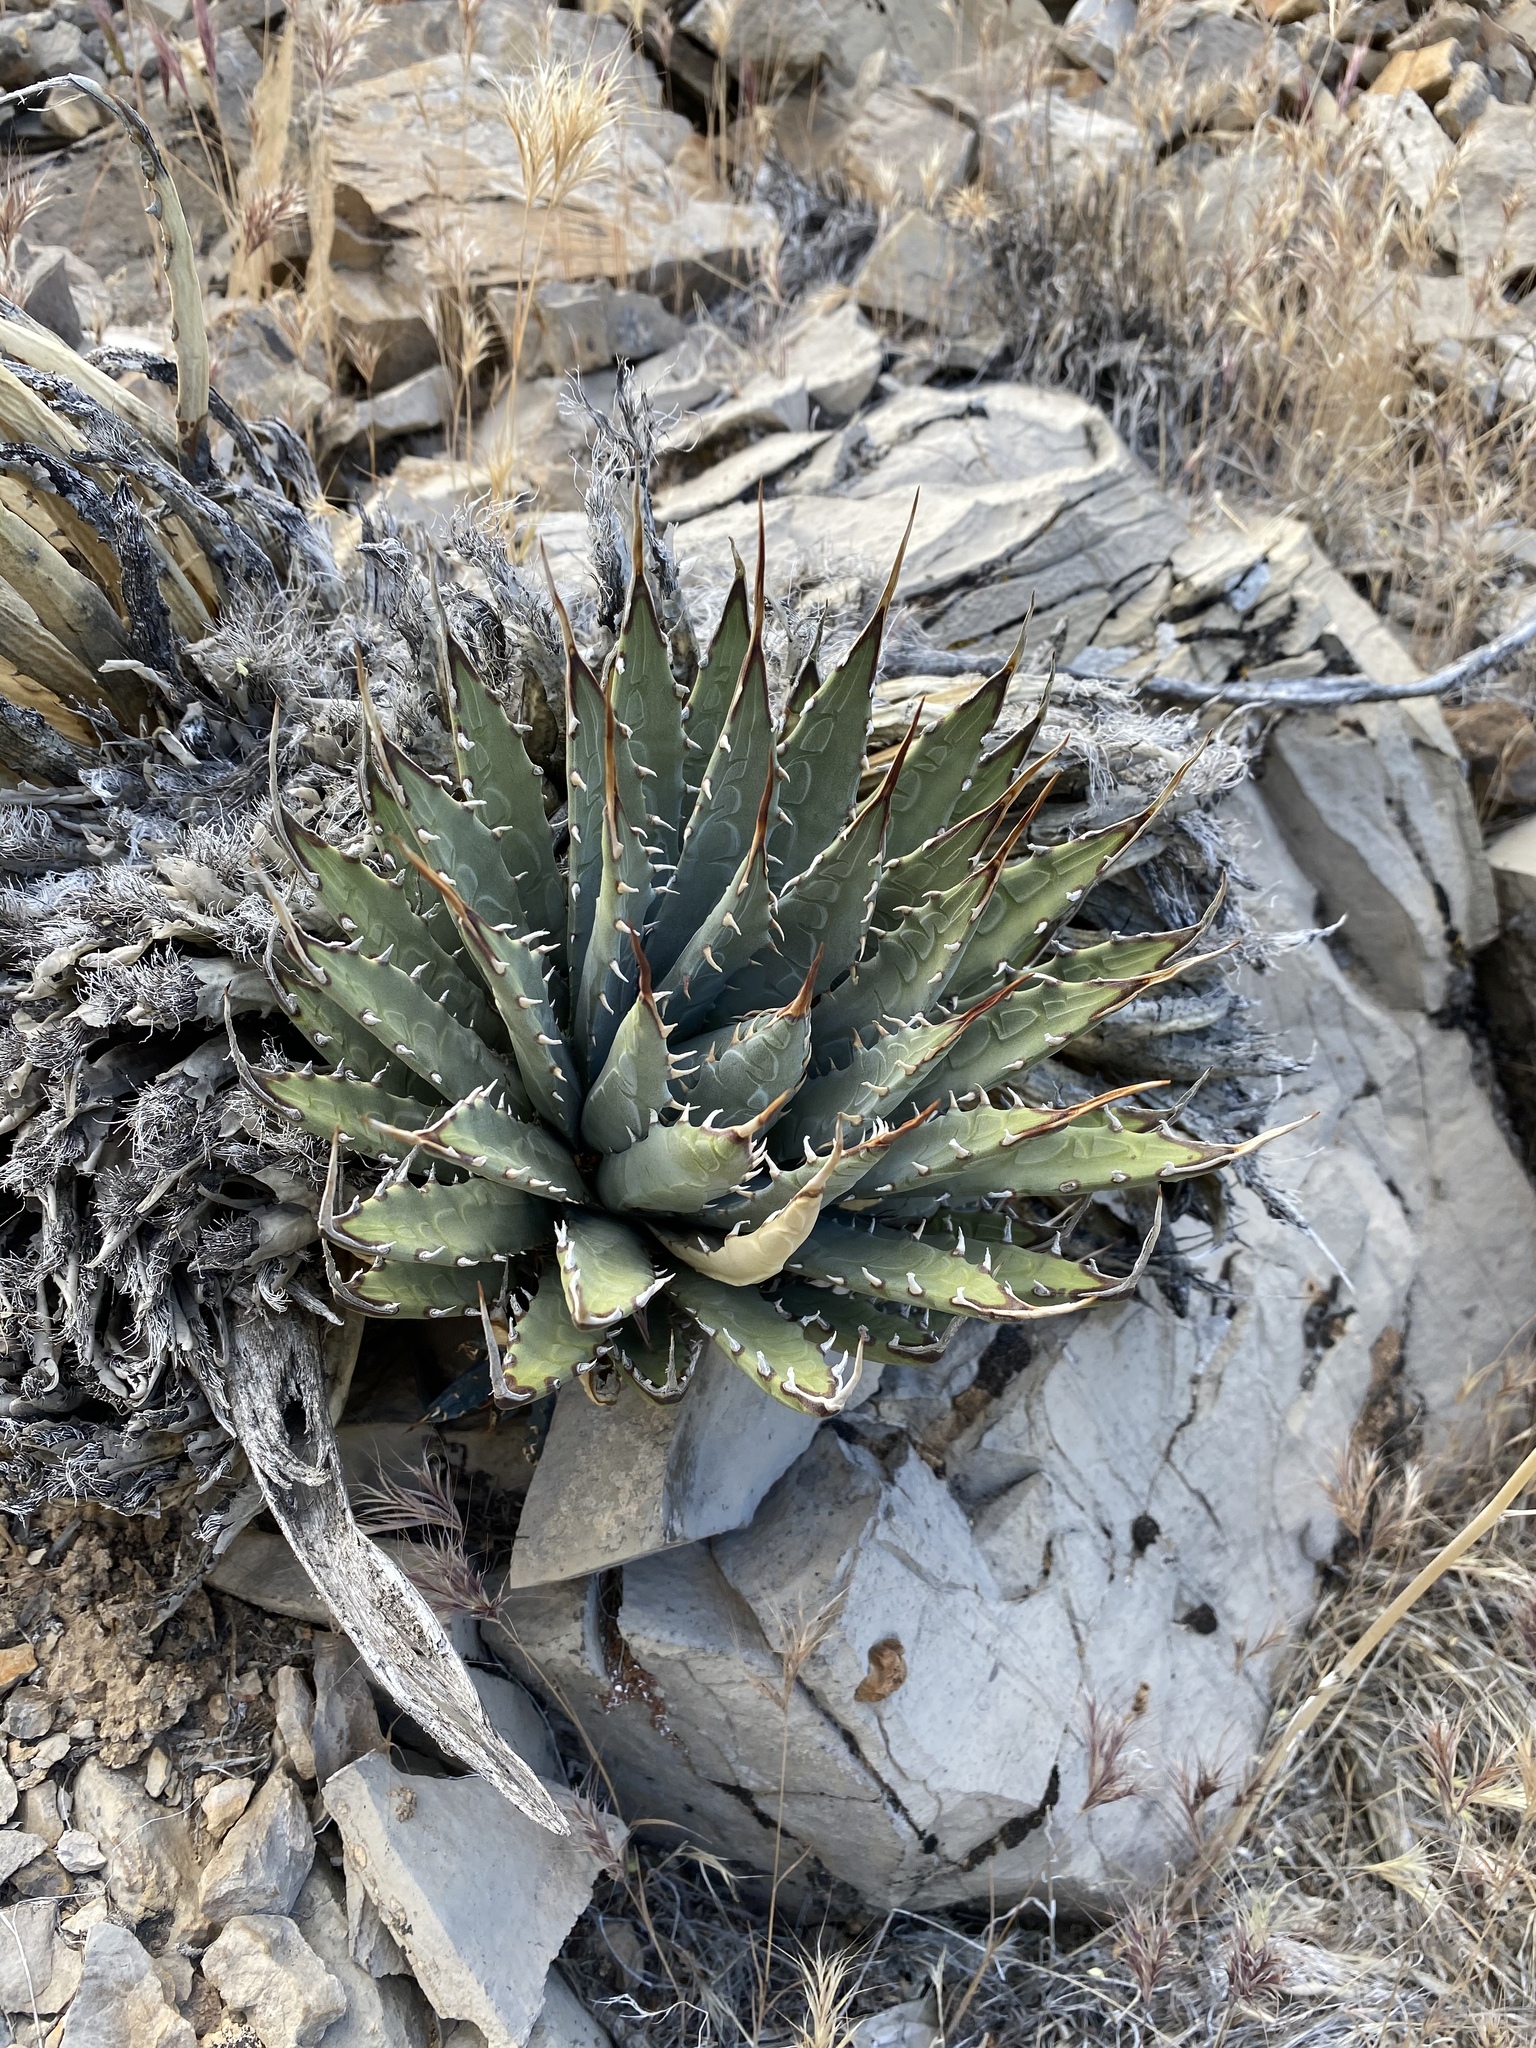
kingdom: Plantae
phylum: Tracheophyta
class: Liliopsida
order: Asparagales
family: Asparagaceae
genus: Agave
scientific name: Agave utahensis
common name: Utah agave
